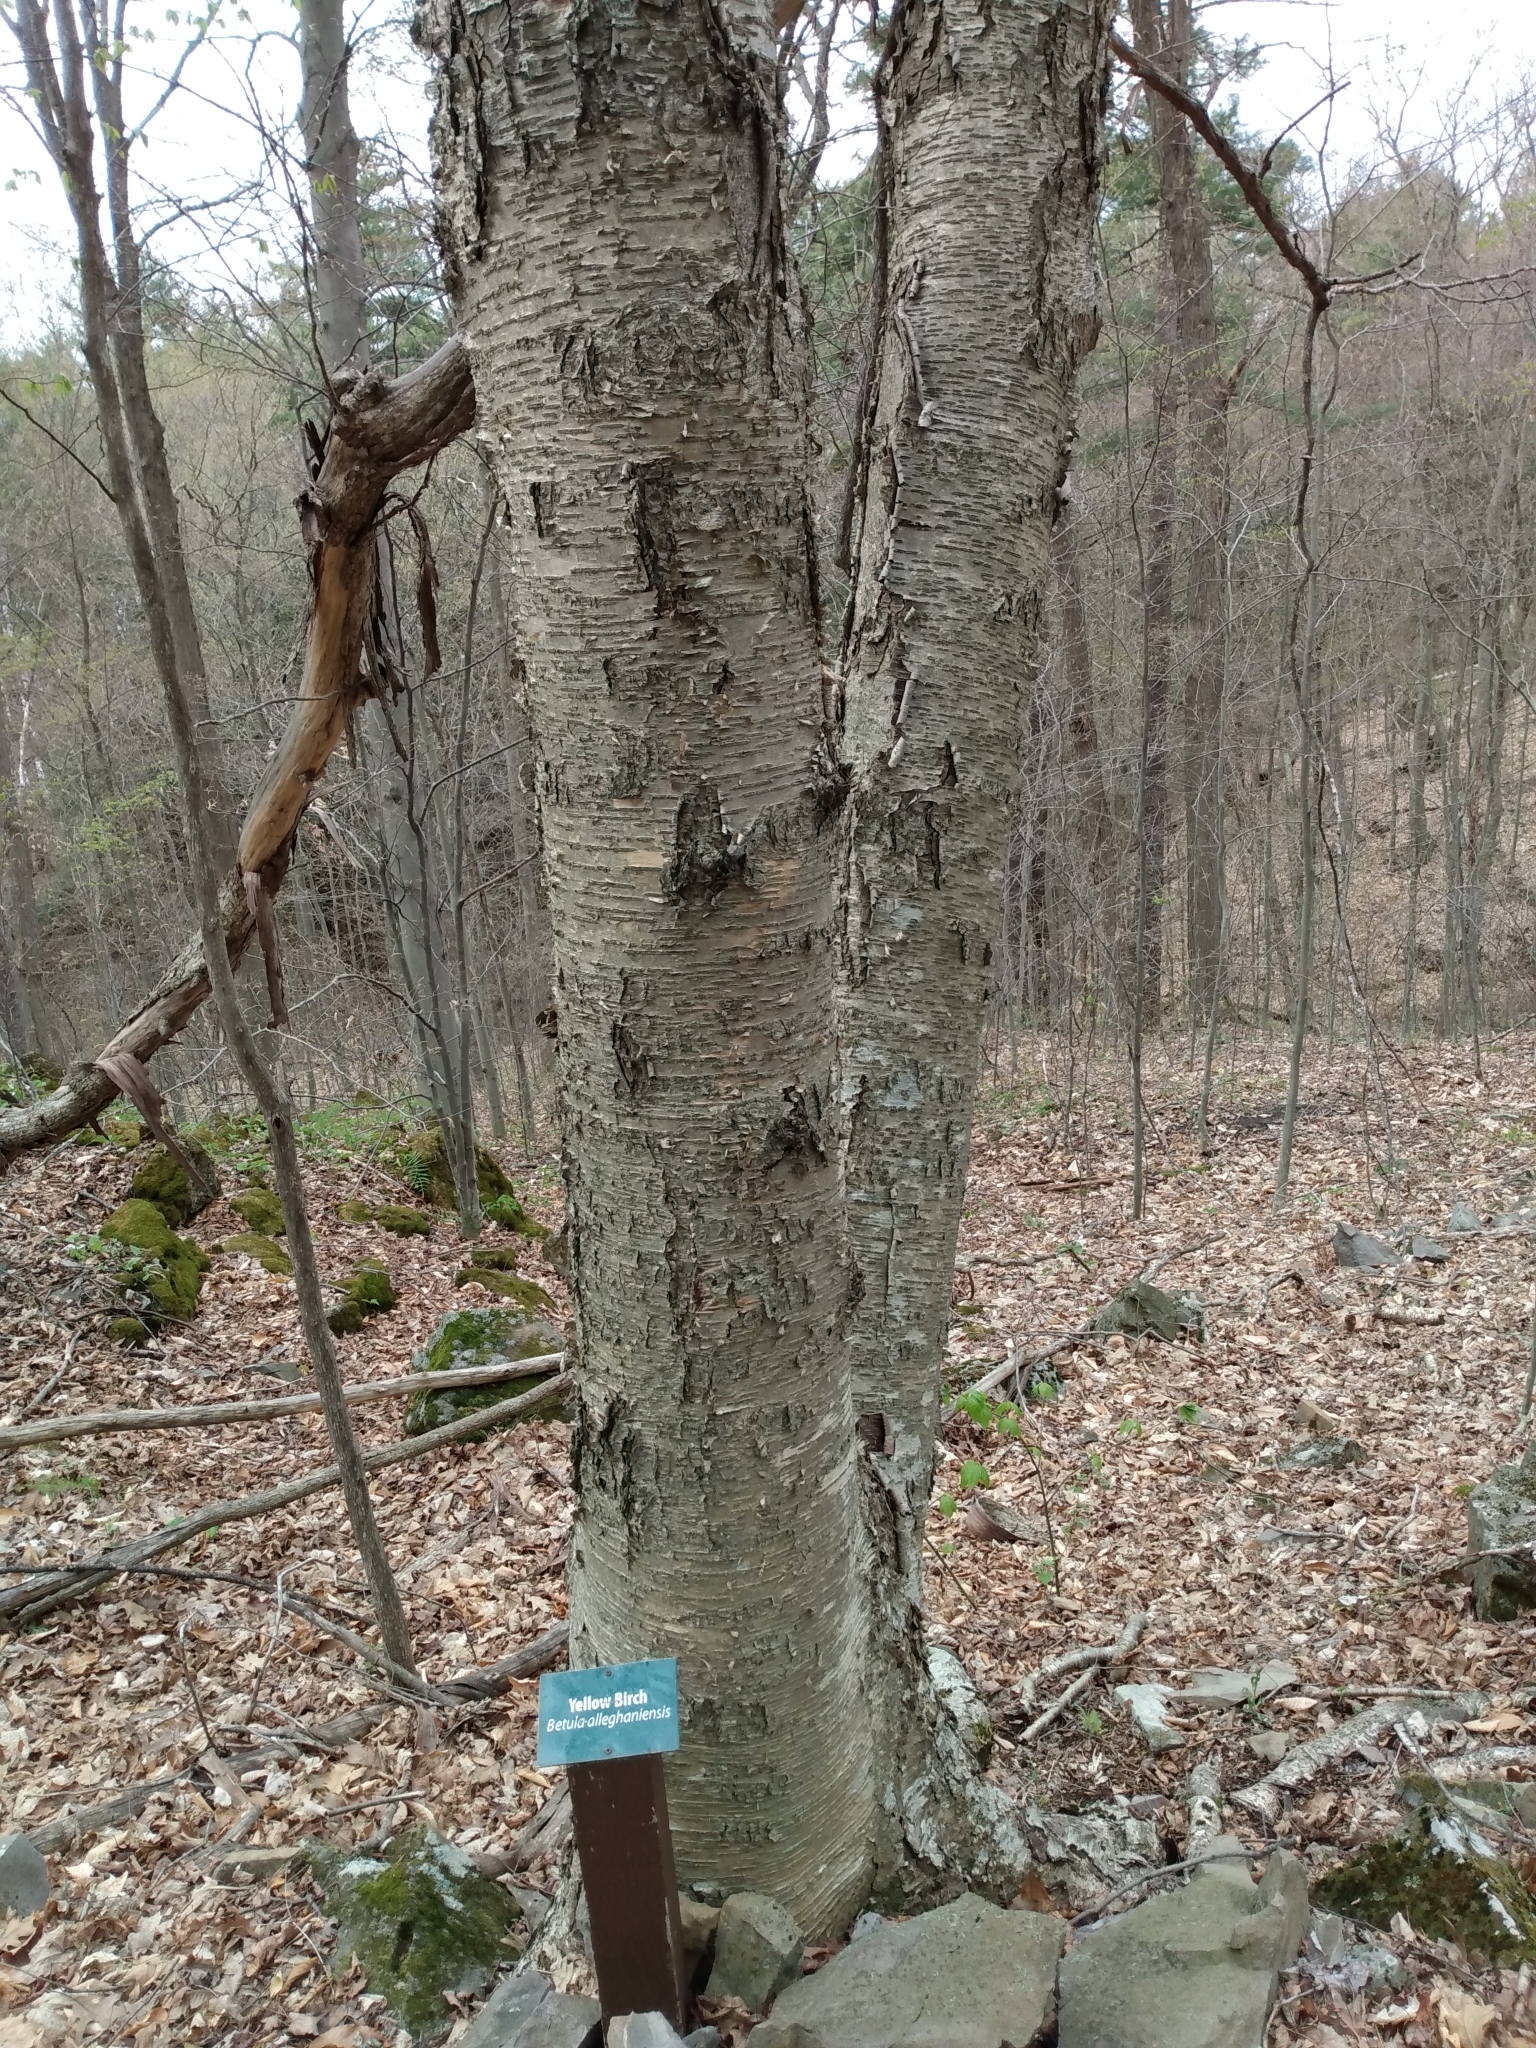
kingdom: Plantae
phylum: Tracheophyta
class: Magnoliopsida
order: Fagales
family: Betulaceae
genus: Betula
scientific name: Betula alleghaniensis
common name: Yellow birch
